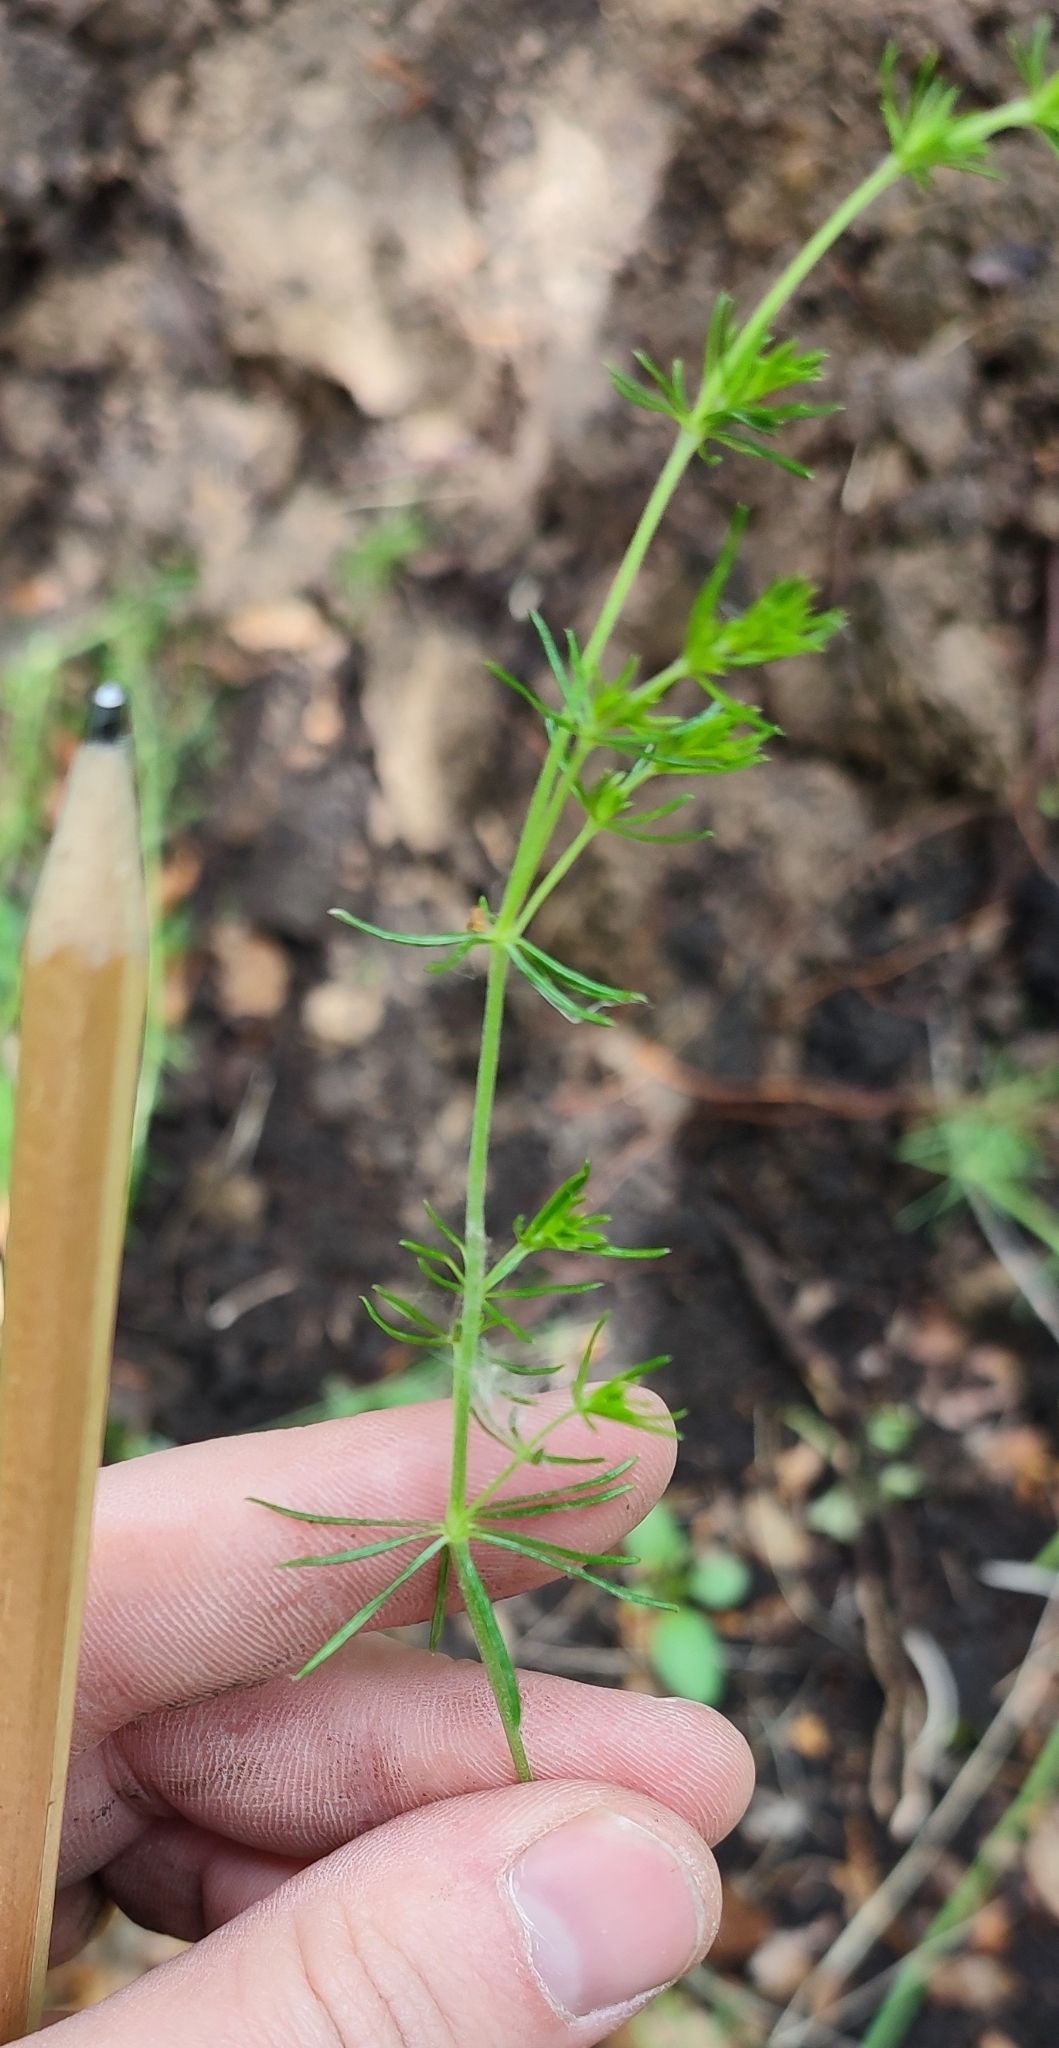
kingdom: Plantae
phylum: Tracheophyta
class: Magnoliopsida
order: Gentianales
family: Rubiaceae
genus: Galium
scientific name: Galium verum
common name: Lady's bedstraw
